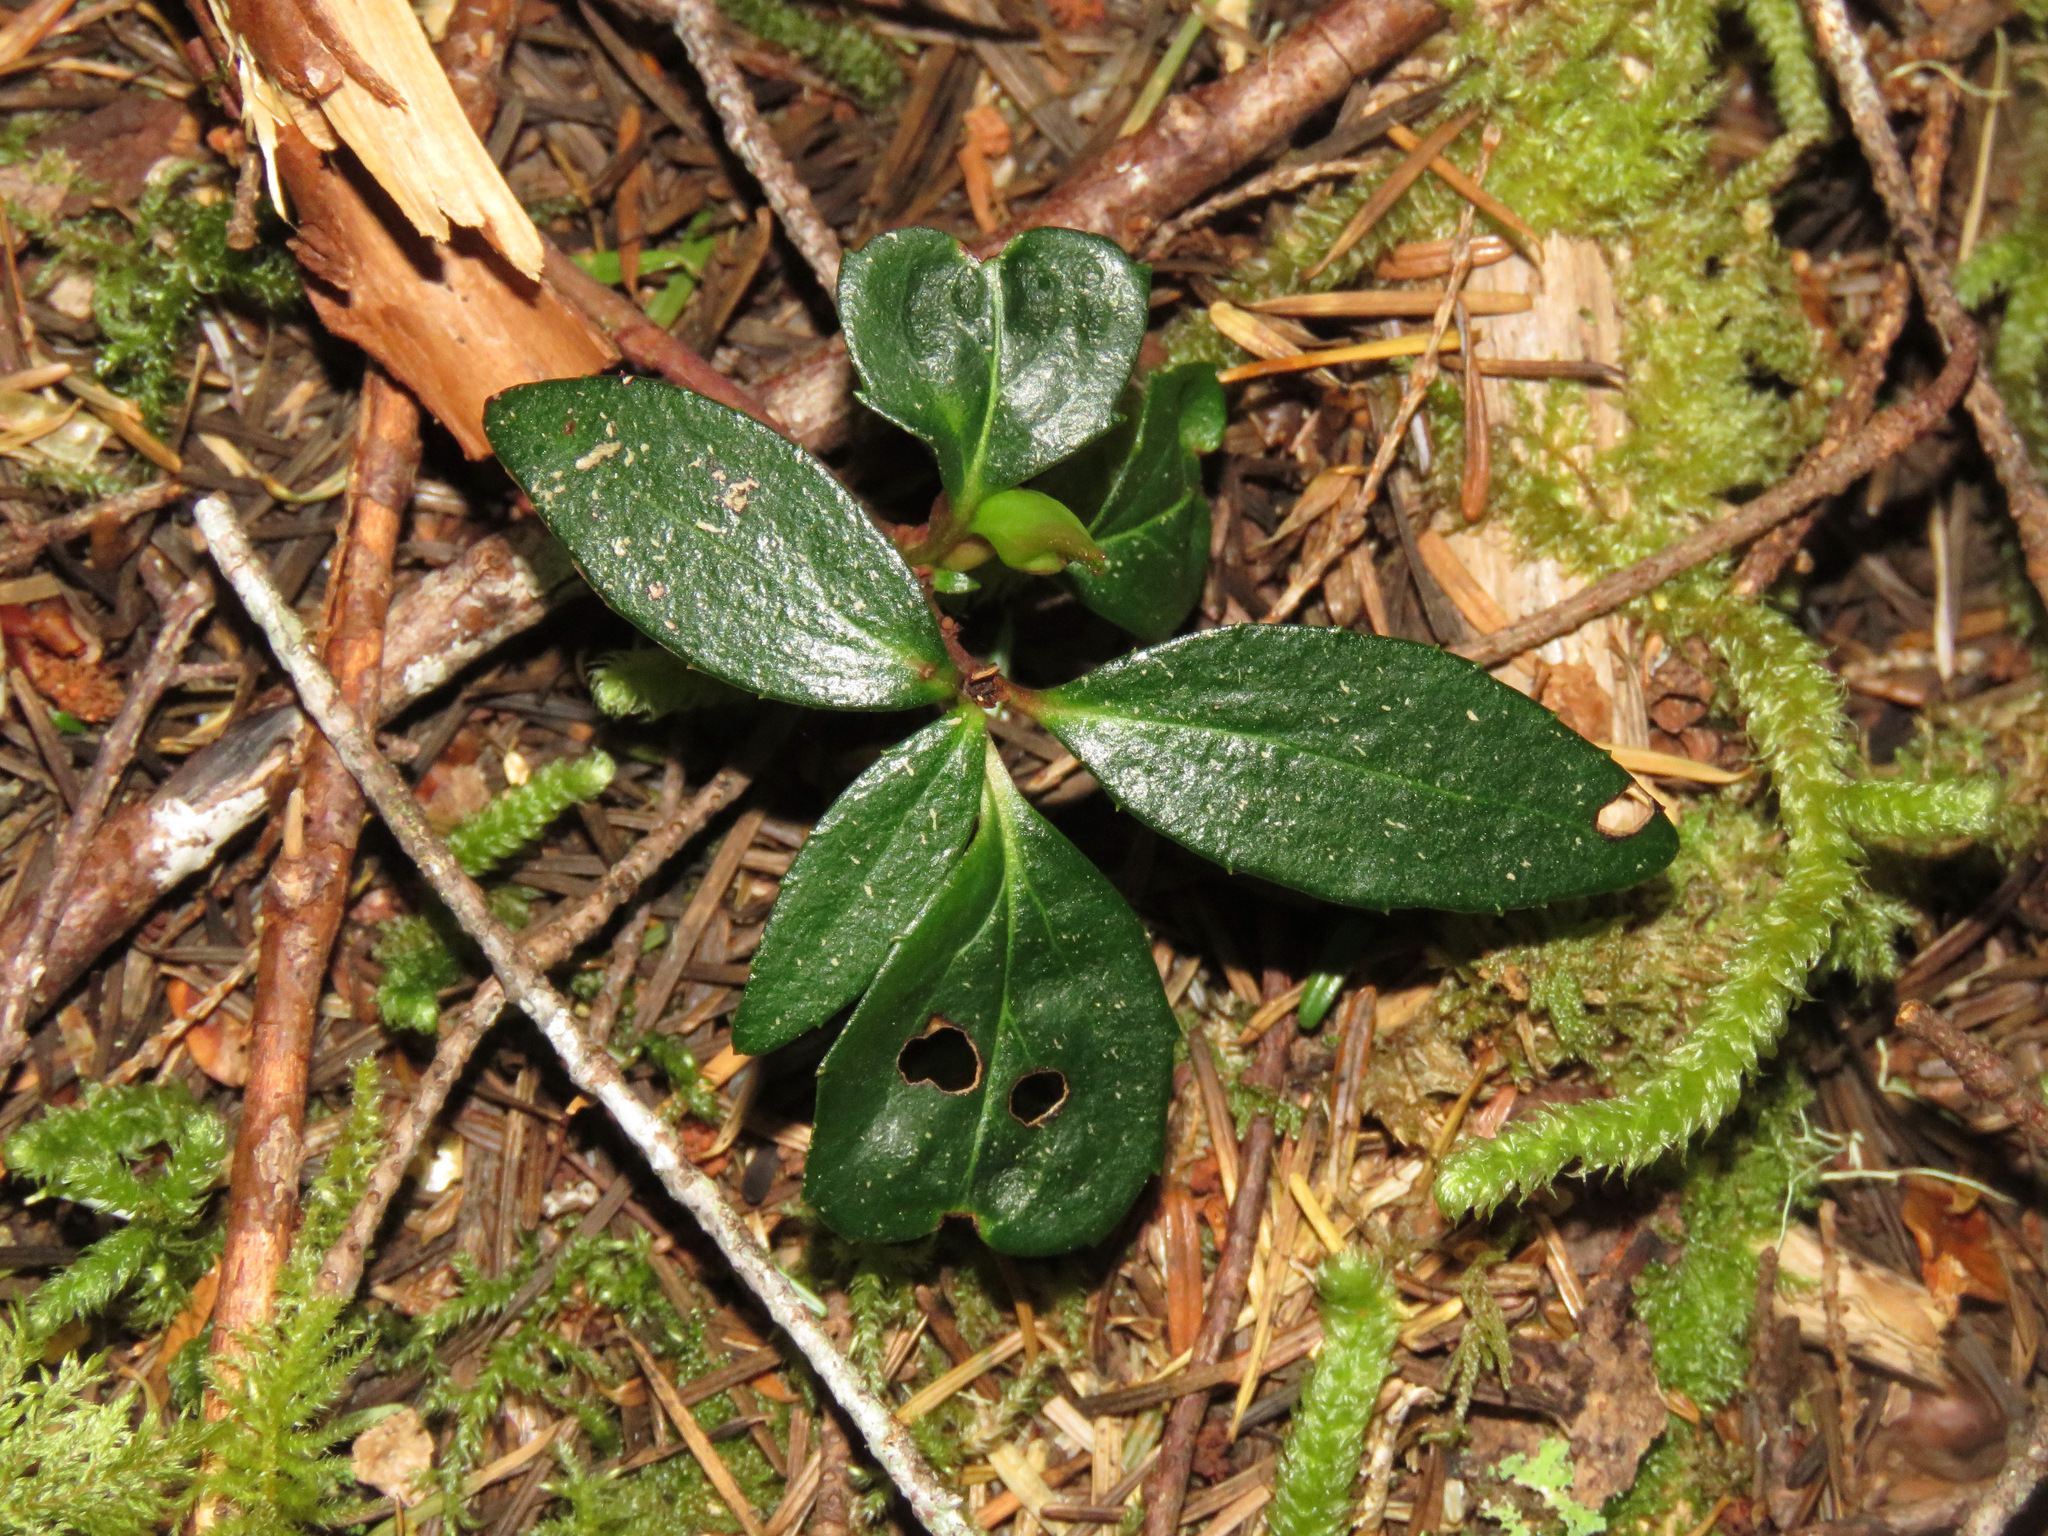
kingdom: Plantae
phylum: Tracheophyta
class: Magnoliopsida
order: Ericales
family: Ericaceae
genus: Chimaphila
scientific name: Chimaphila menziesii
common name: Menzies' pipsissewa
